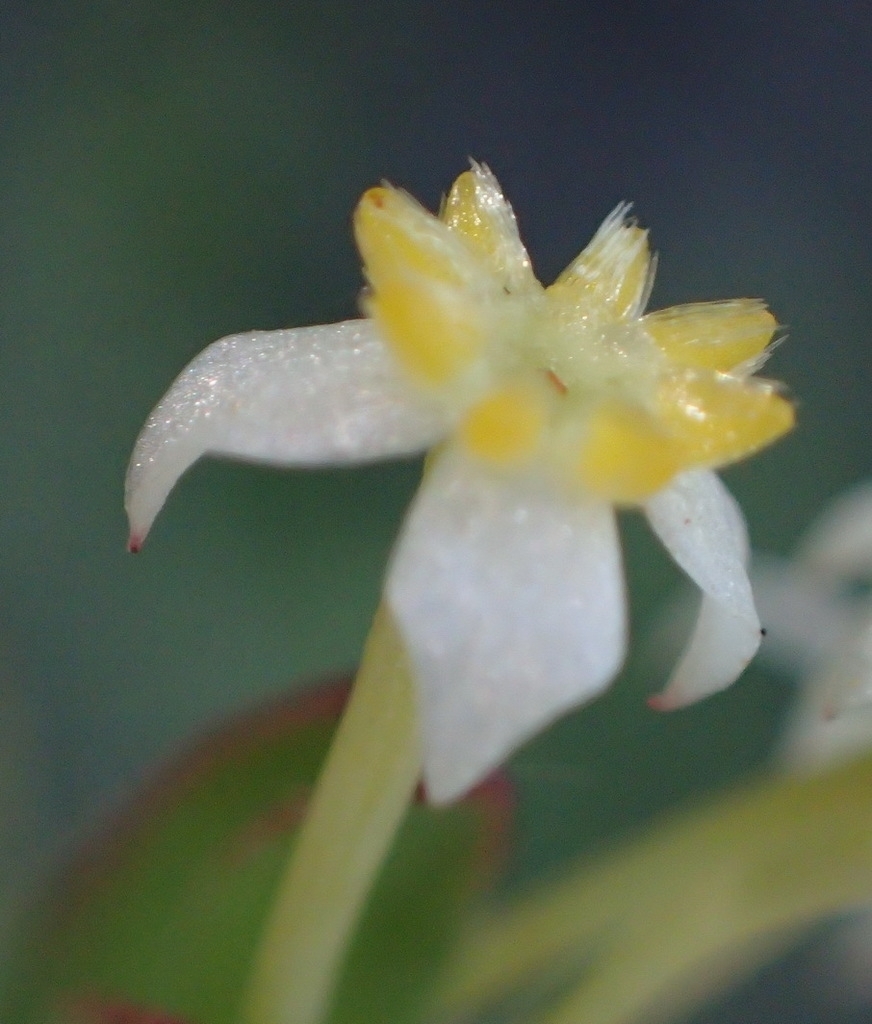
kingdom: Plantae
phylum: Tracheophyta
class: Magnoliopsida
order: Malvales
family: Thymelaeaceae
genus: Struthiola
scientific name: Struthiola dodecandra
